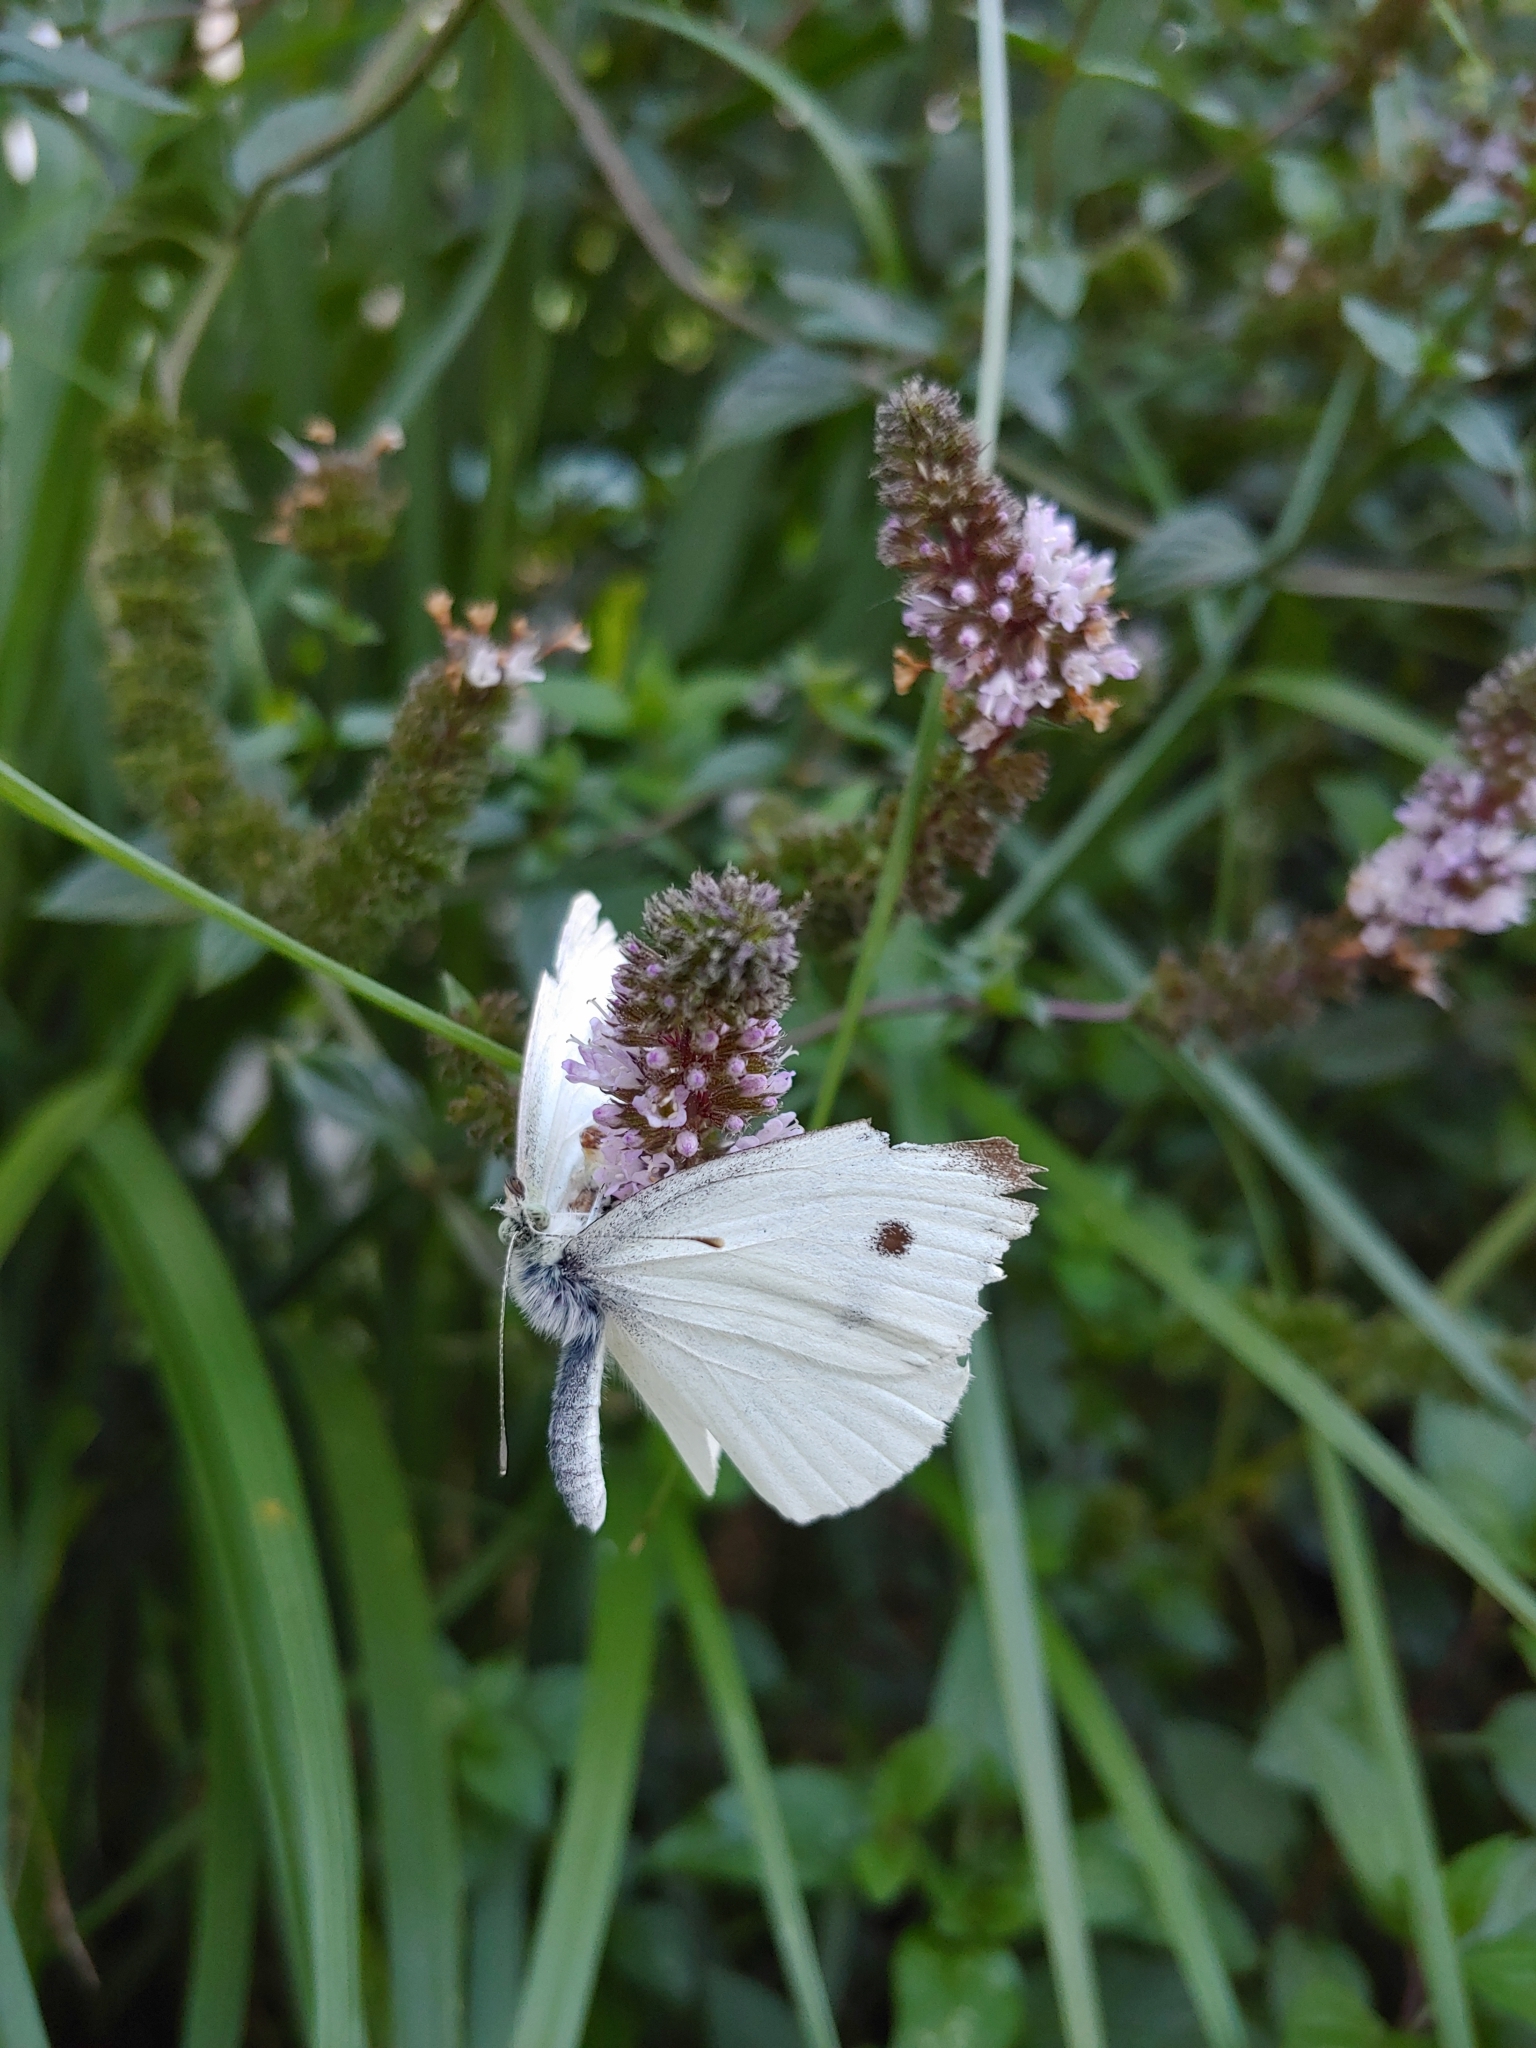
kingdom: Animalia
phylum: Arthropoda
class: Insecta
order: Lepidoptera
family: Pieridae
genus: Pieris
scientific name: Pieris rapae
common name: Small white
